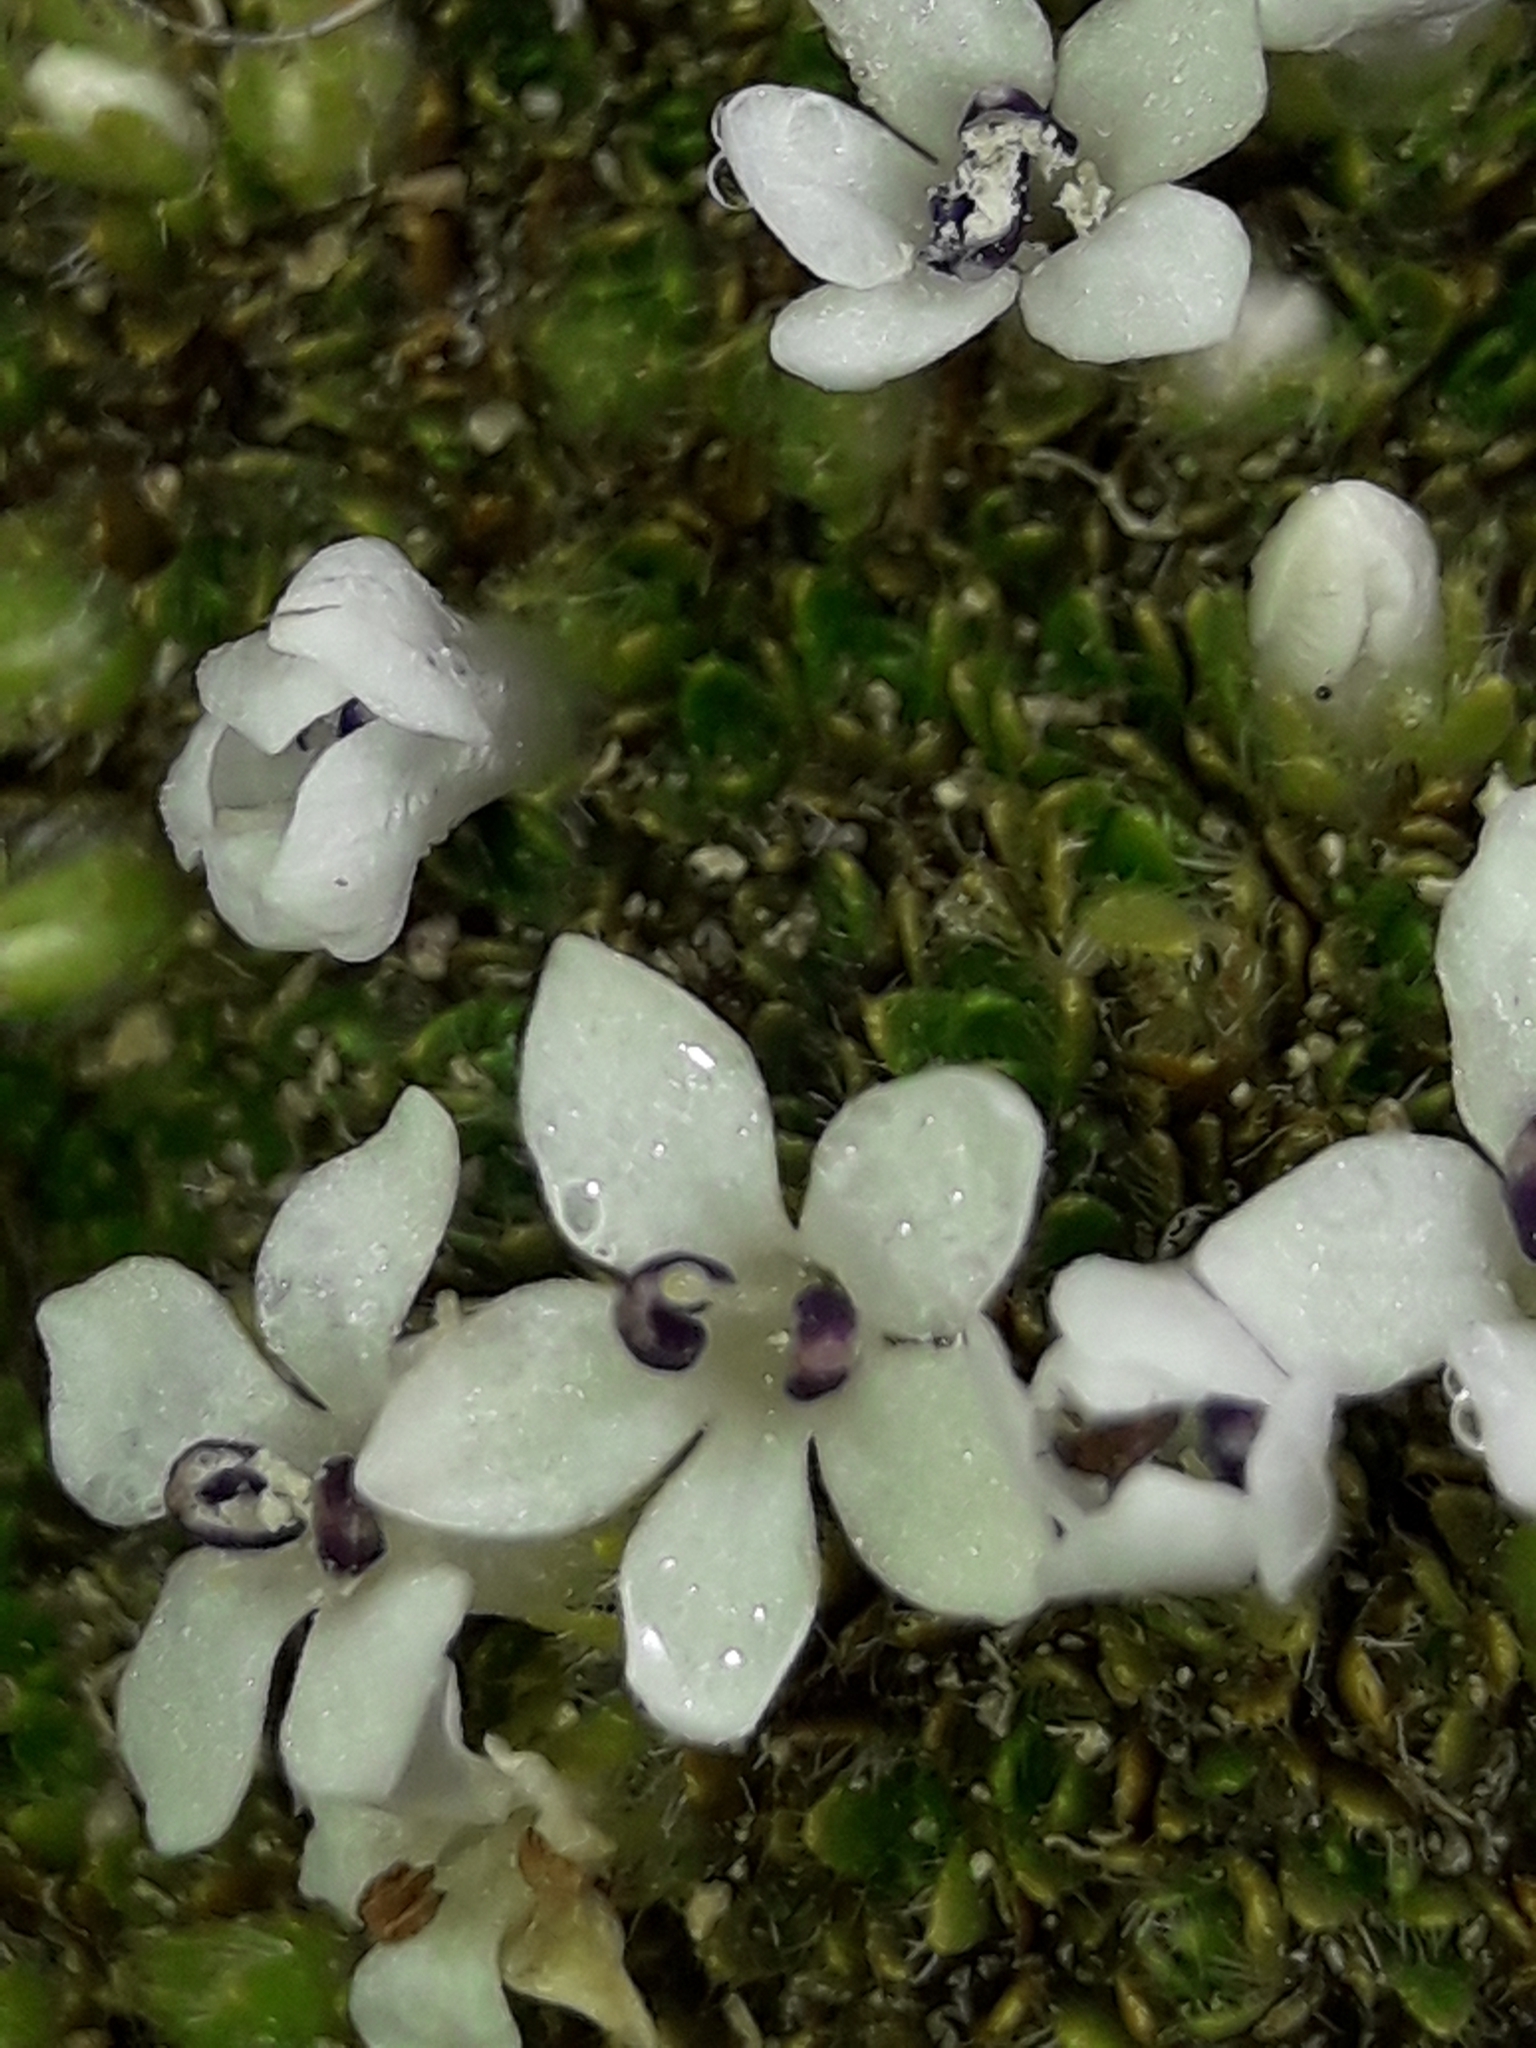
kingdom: Plantae
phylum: Tracheophyta
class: Magnoliopsida
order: Lamiales
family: Plantaginaceae
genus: Veronica
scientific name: Veronica pulvinaris
